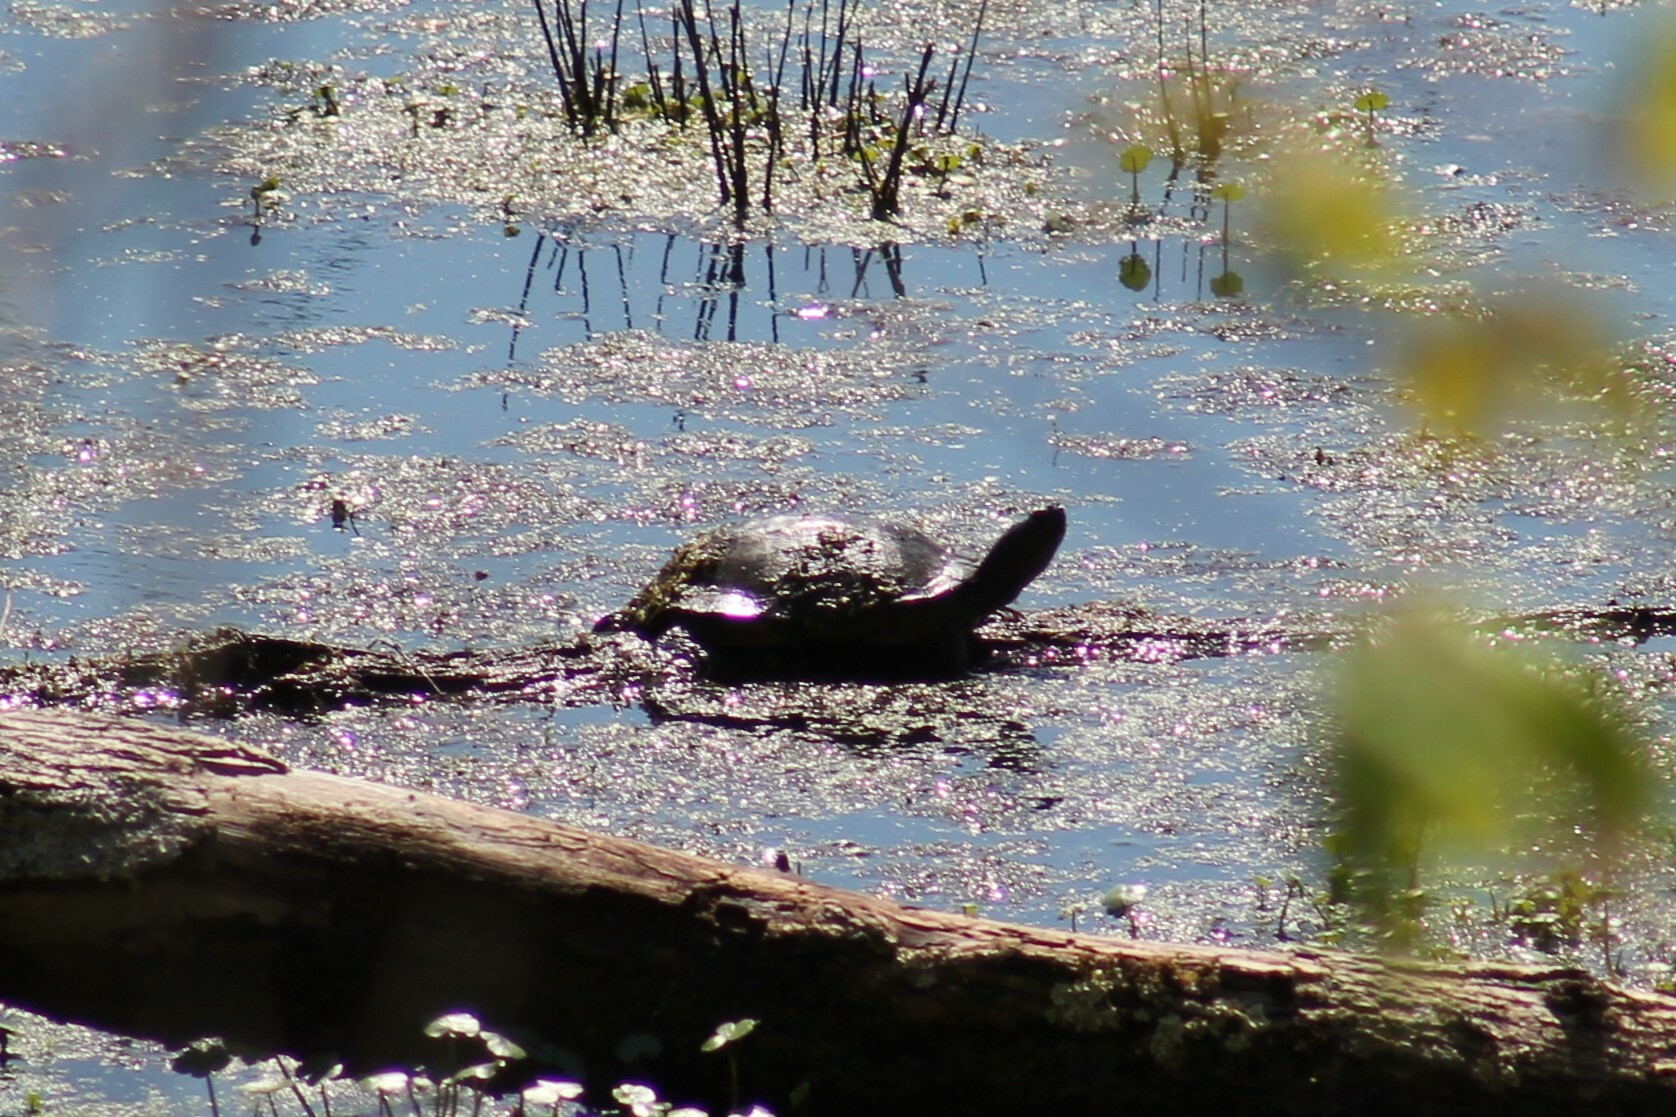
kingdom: Animalia
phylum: Chordata
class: Testudines
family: Emydidae
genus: Trachemys
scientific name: Trachemys scripta
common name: Slider
